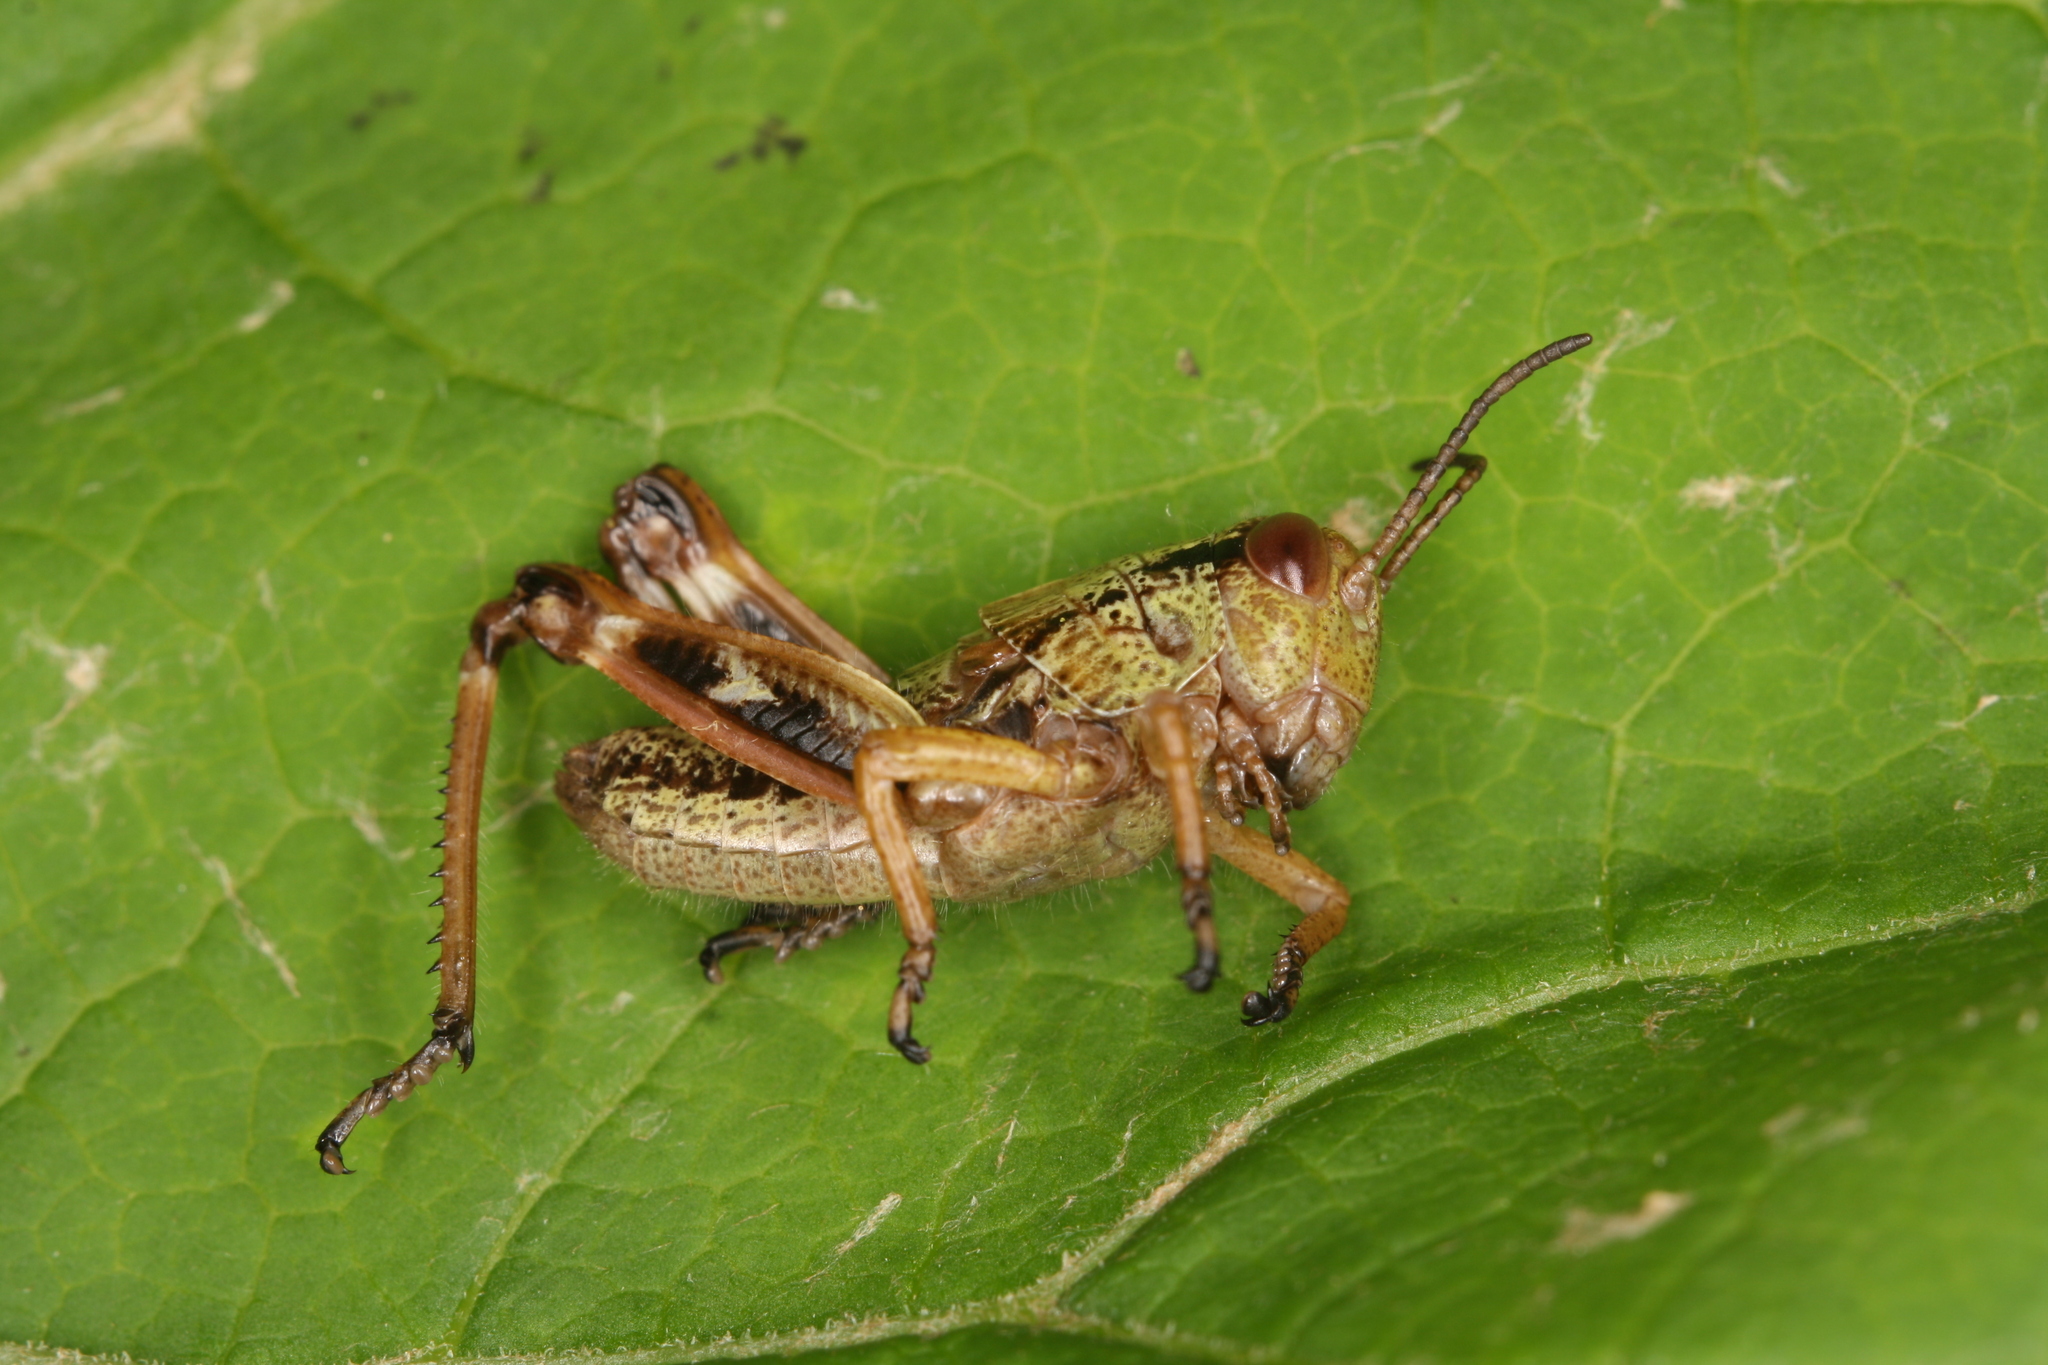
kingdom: Animalia
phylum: Arthropoda
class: Insecta
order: Orthoptera
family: Acrididae
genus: Miramella
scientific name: Miramella alpina
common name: Green mountain grasshopper
